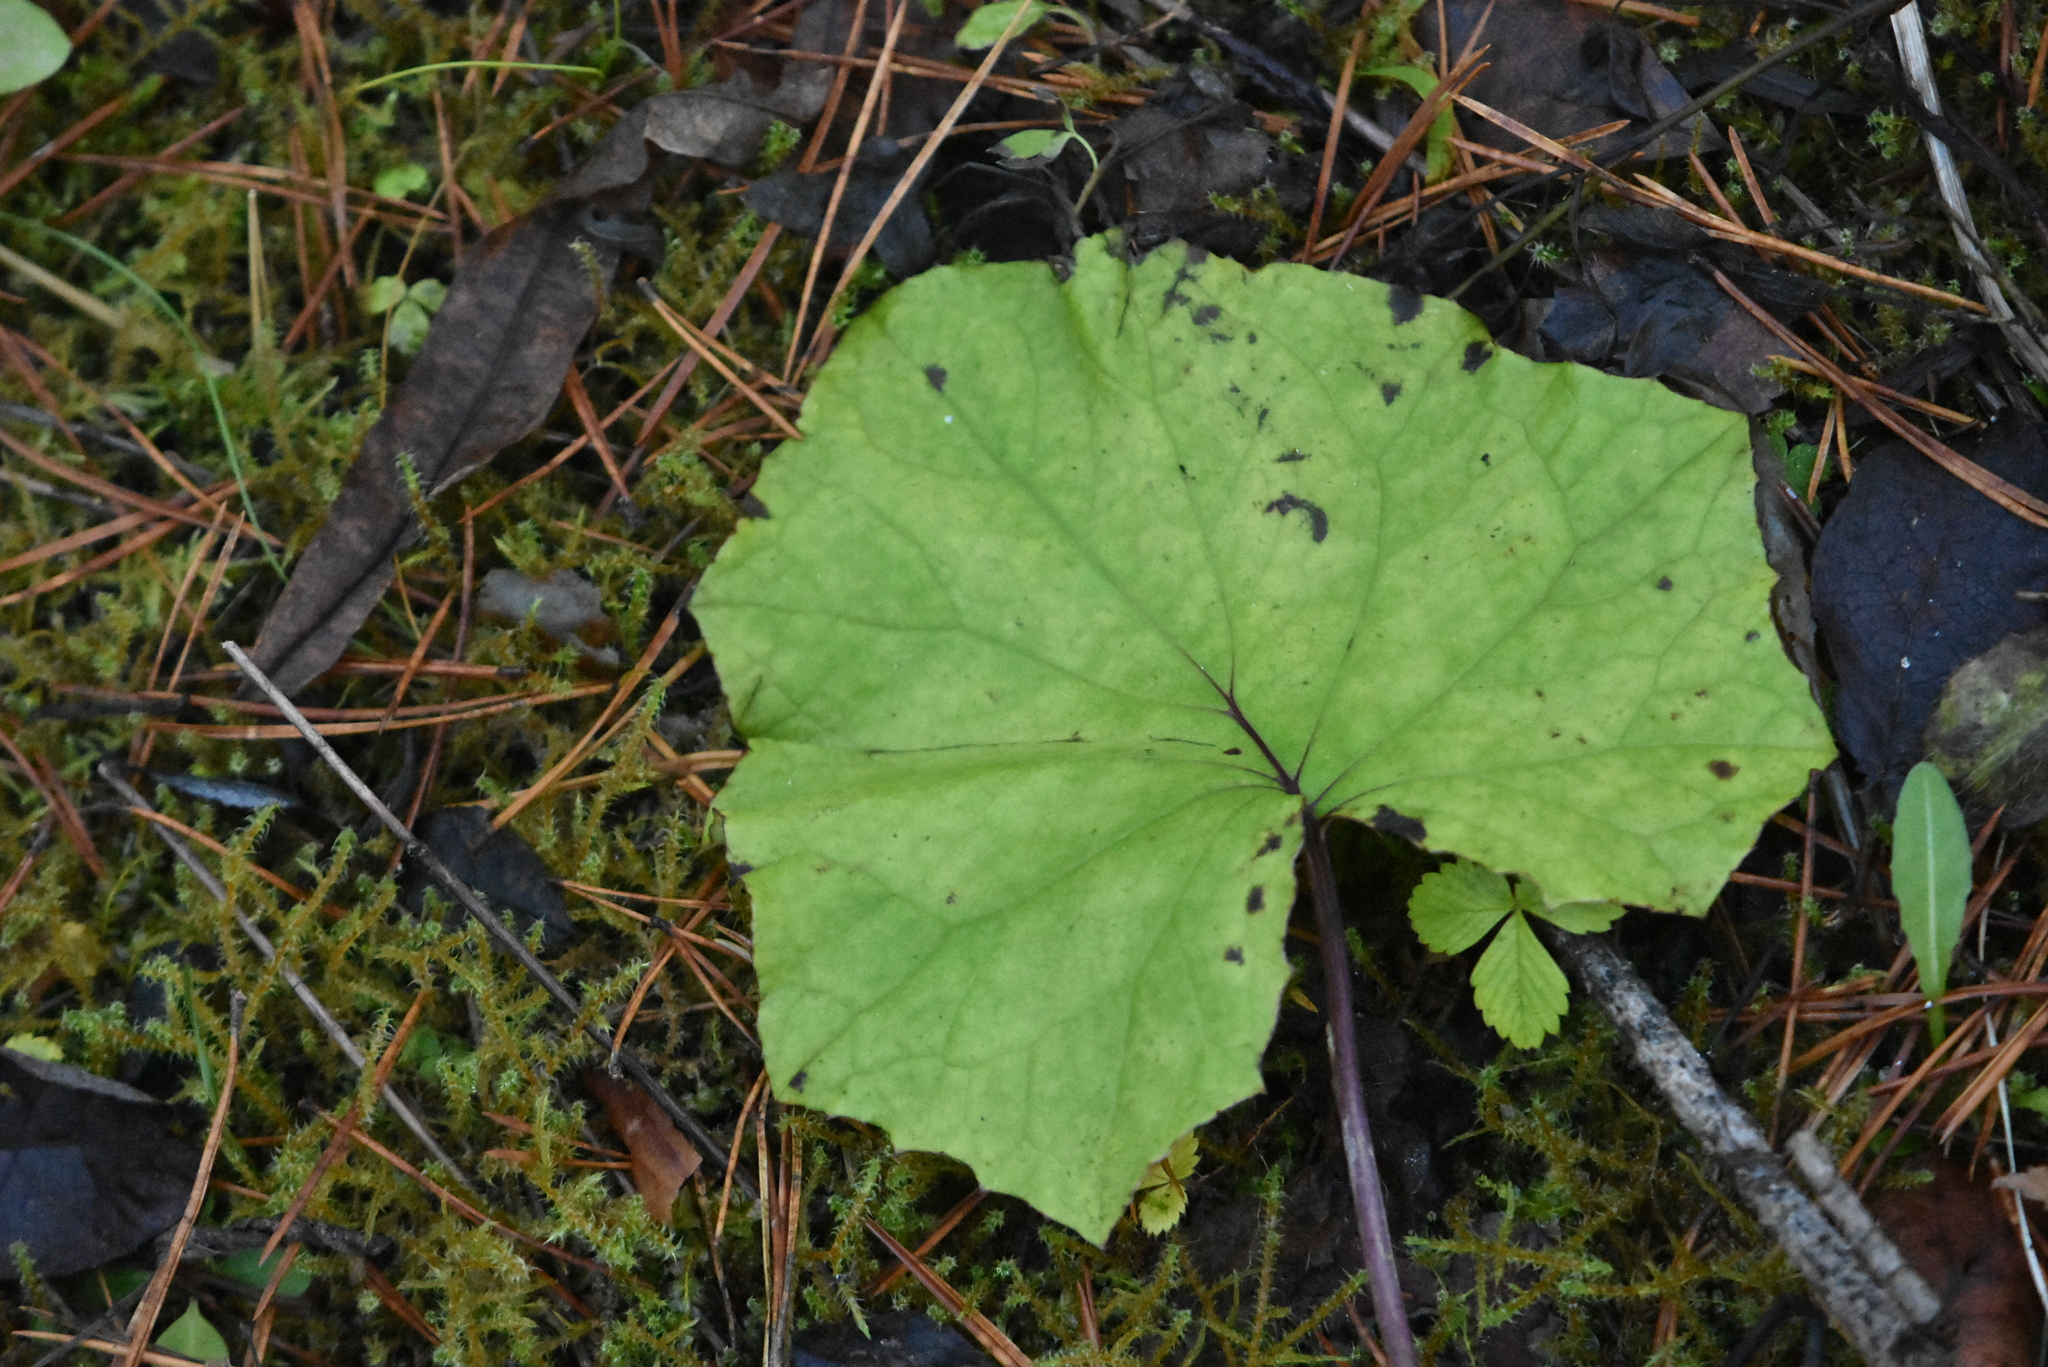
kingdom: Plantae
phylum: Tracheophyta
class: Magnoliopsida
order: Asterales
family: Asteraceae
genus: Tussilago
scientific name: Tussilago farfara
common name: Coltsfoot
